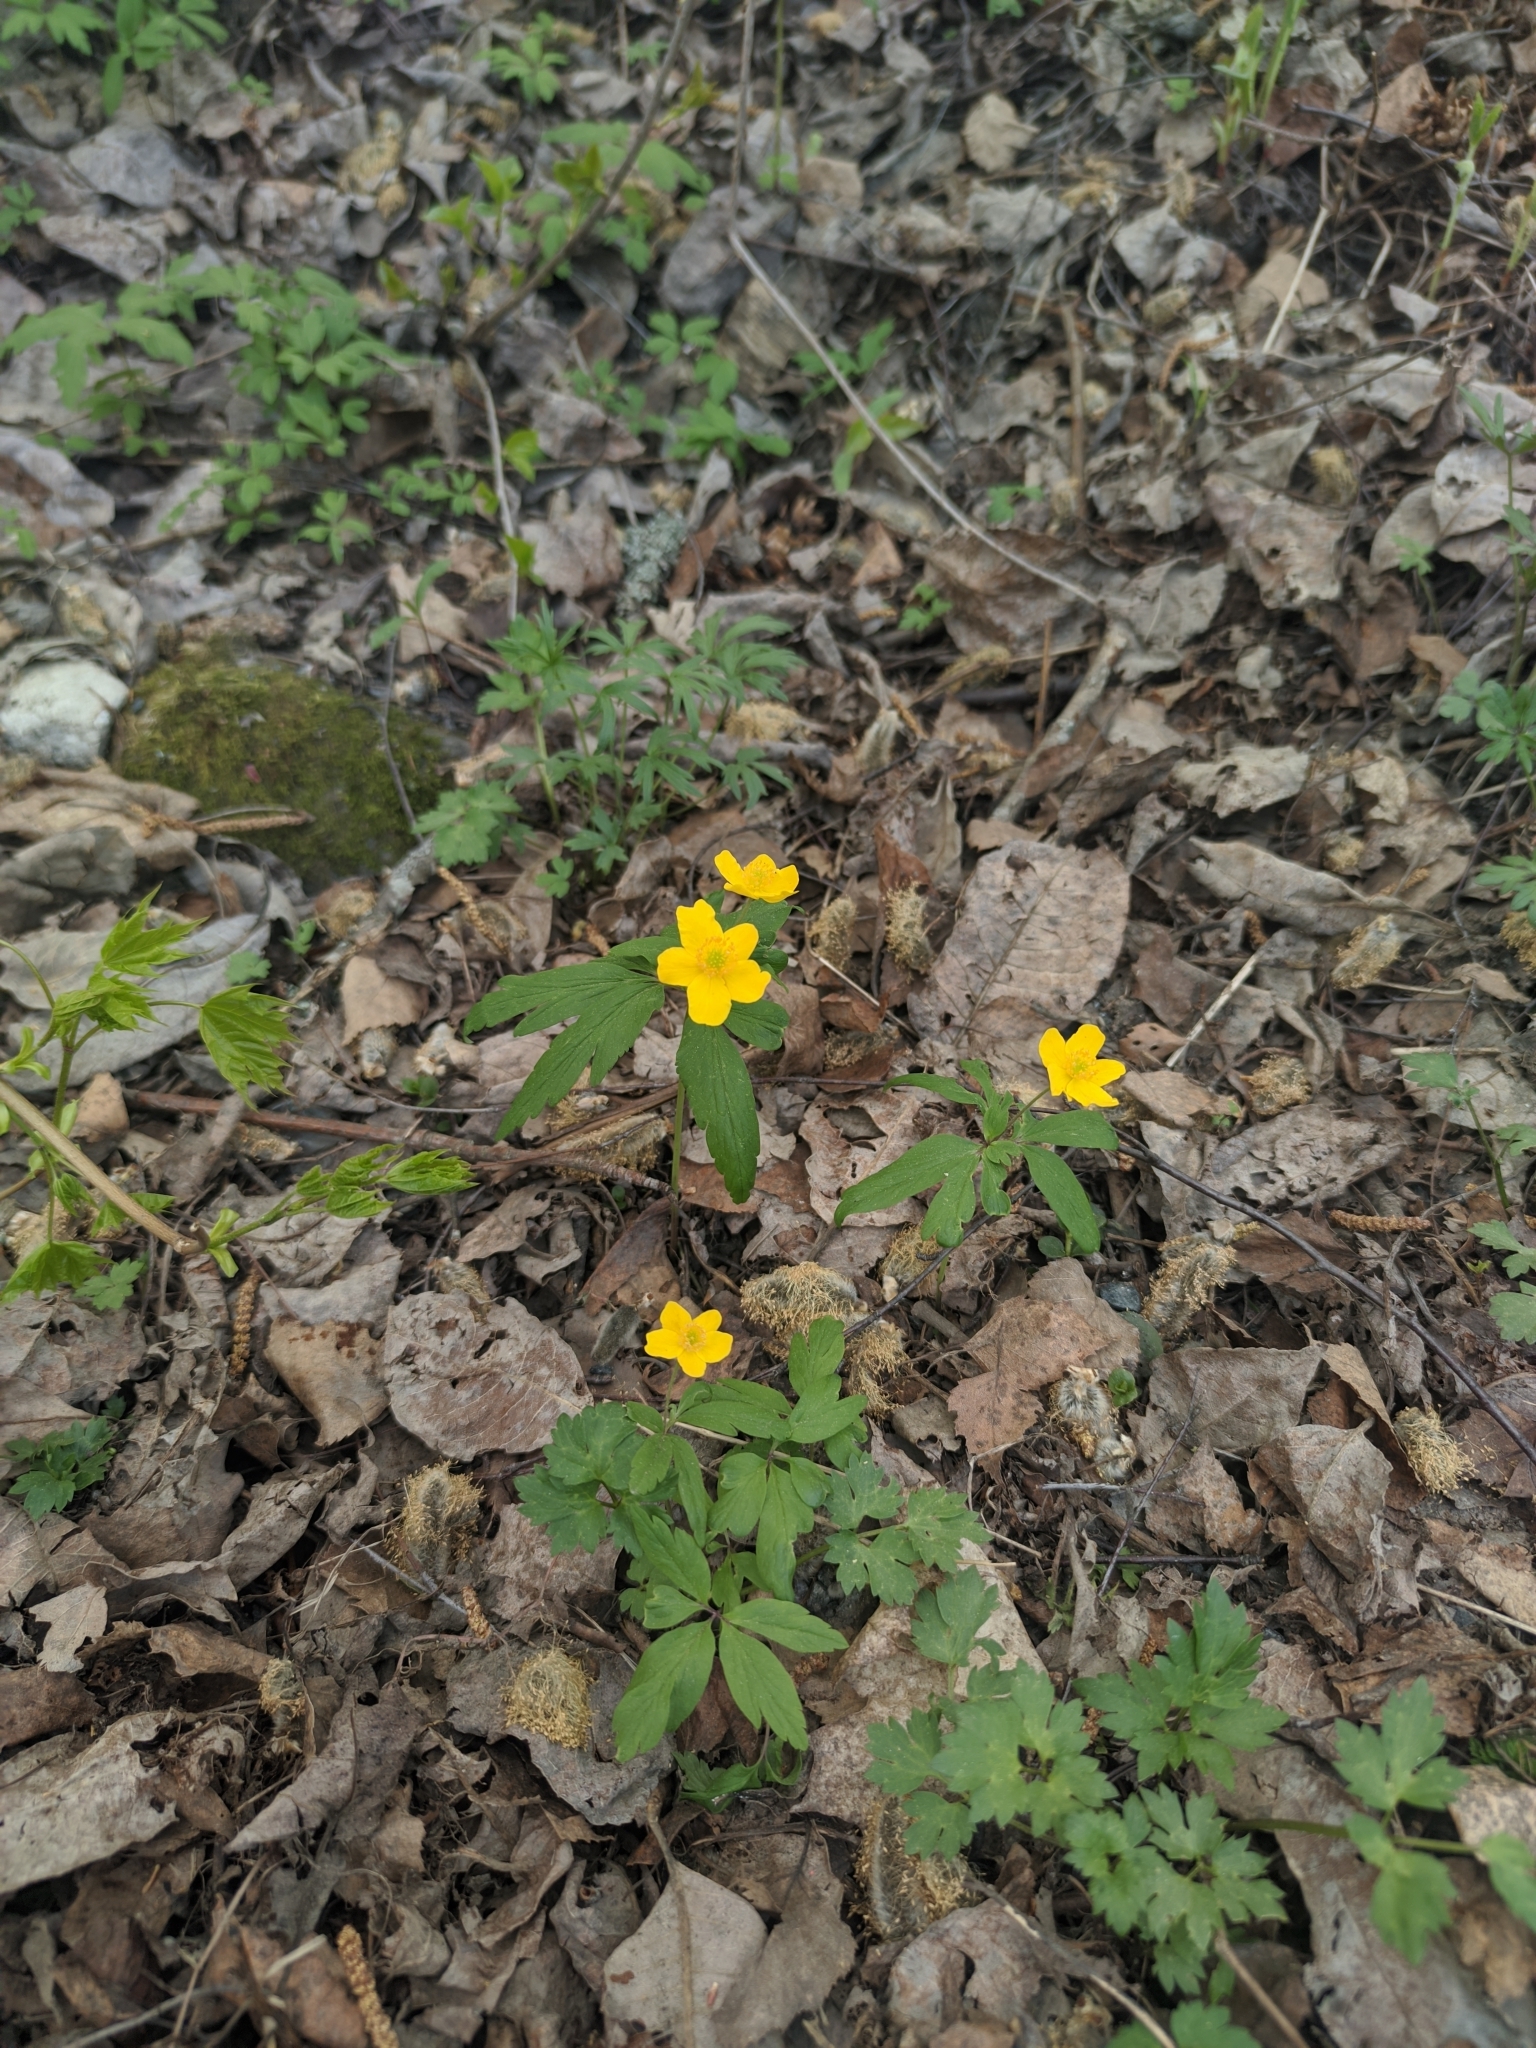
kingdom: Plantae
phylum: Tracheophyta
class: Magnoliopsida
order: Ranunculales
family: Ranunculaceae
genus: Anemone
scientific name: Anemone ranunculoides
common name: Yellow anemone
